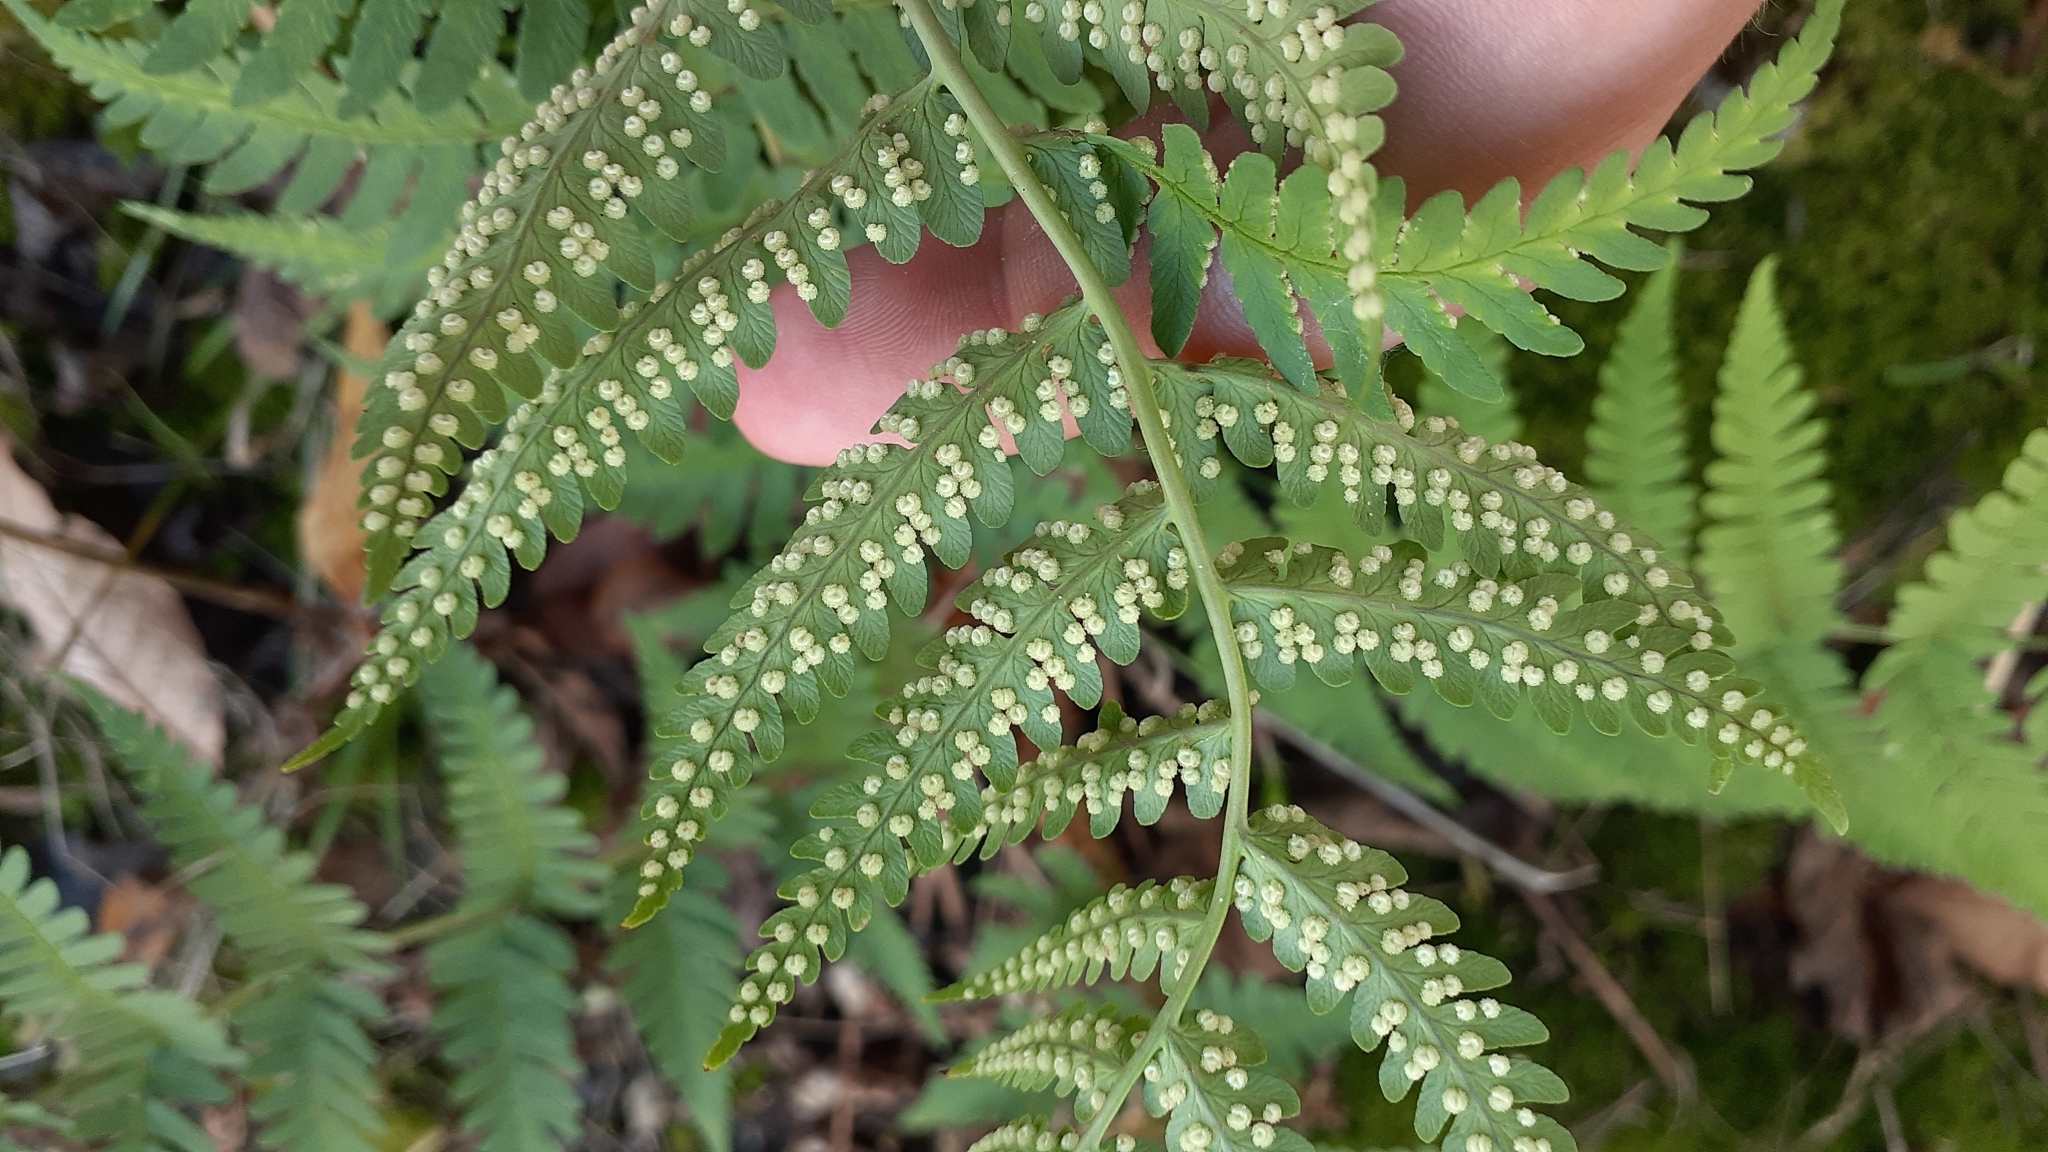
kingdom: Plantae
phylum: Tracheophyta
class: Polypodiopsida
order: Polypodiales
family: Dryopteridaceae
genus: Dryopteris
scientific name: Dryopteris marginalis
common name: Marginal wood fern
